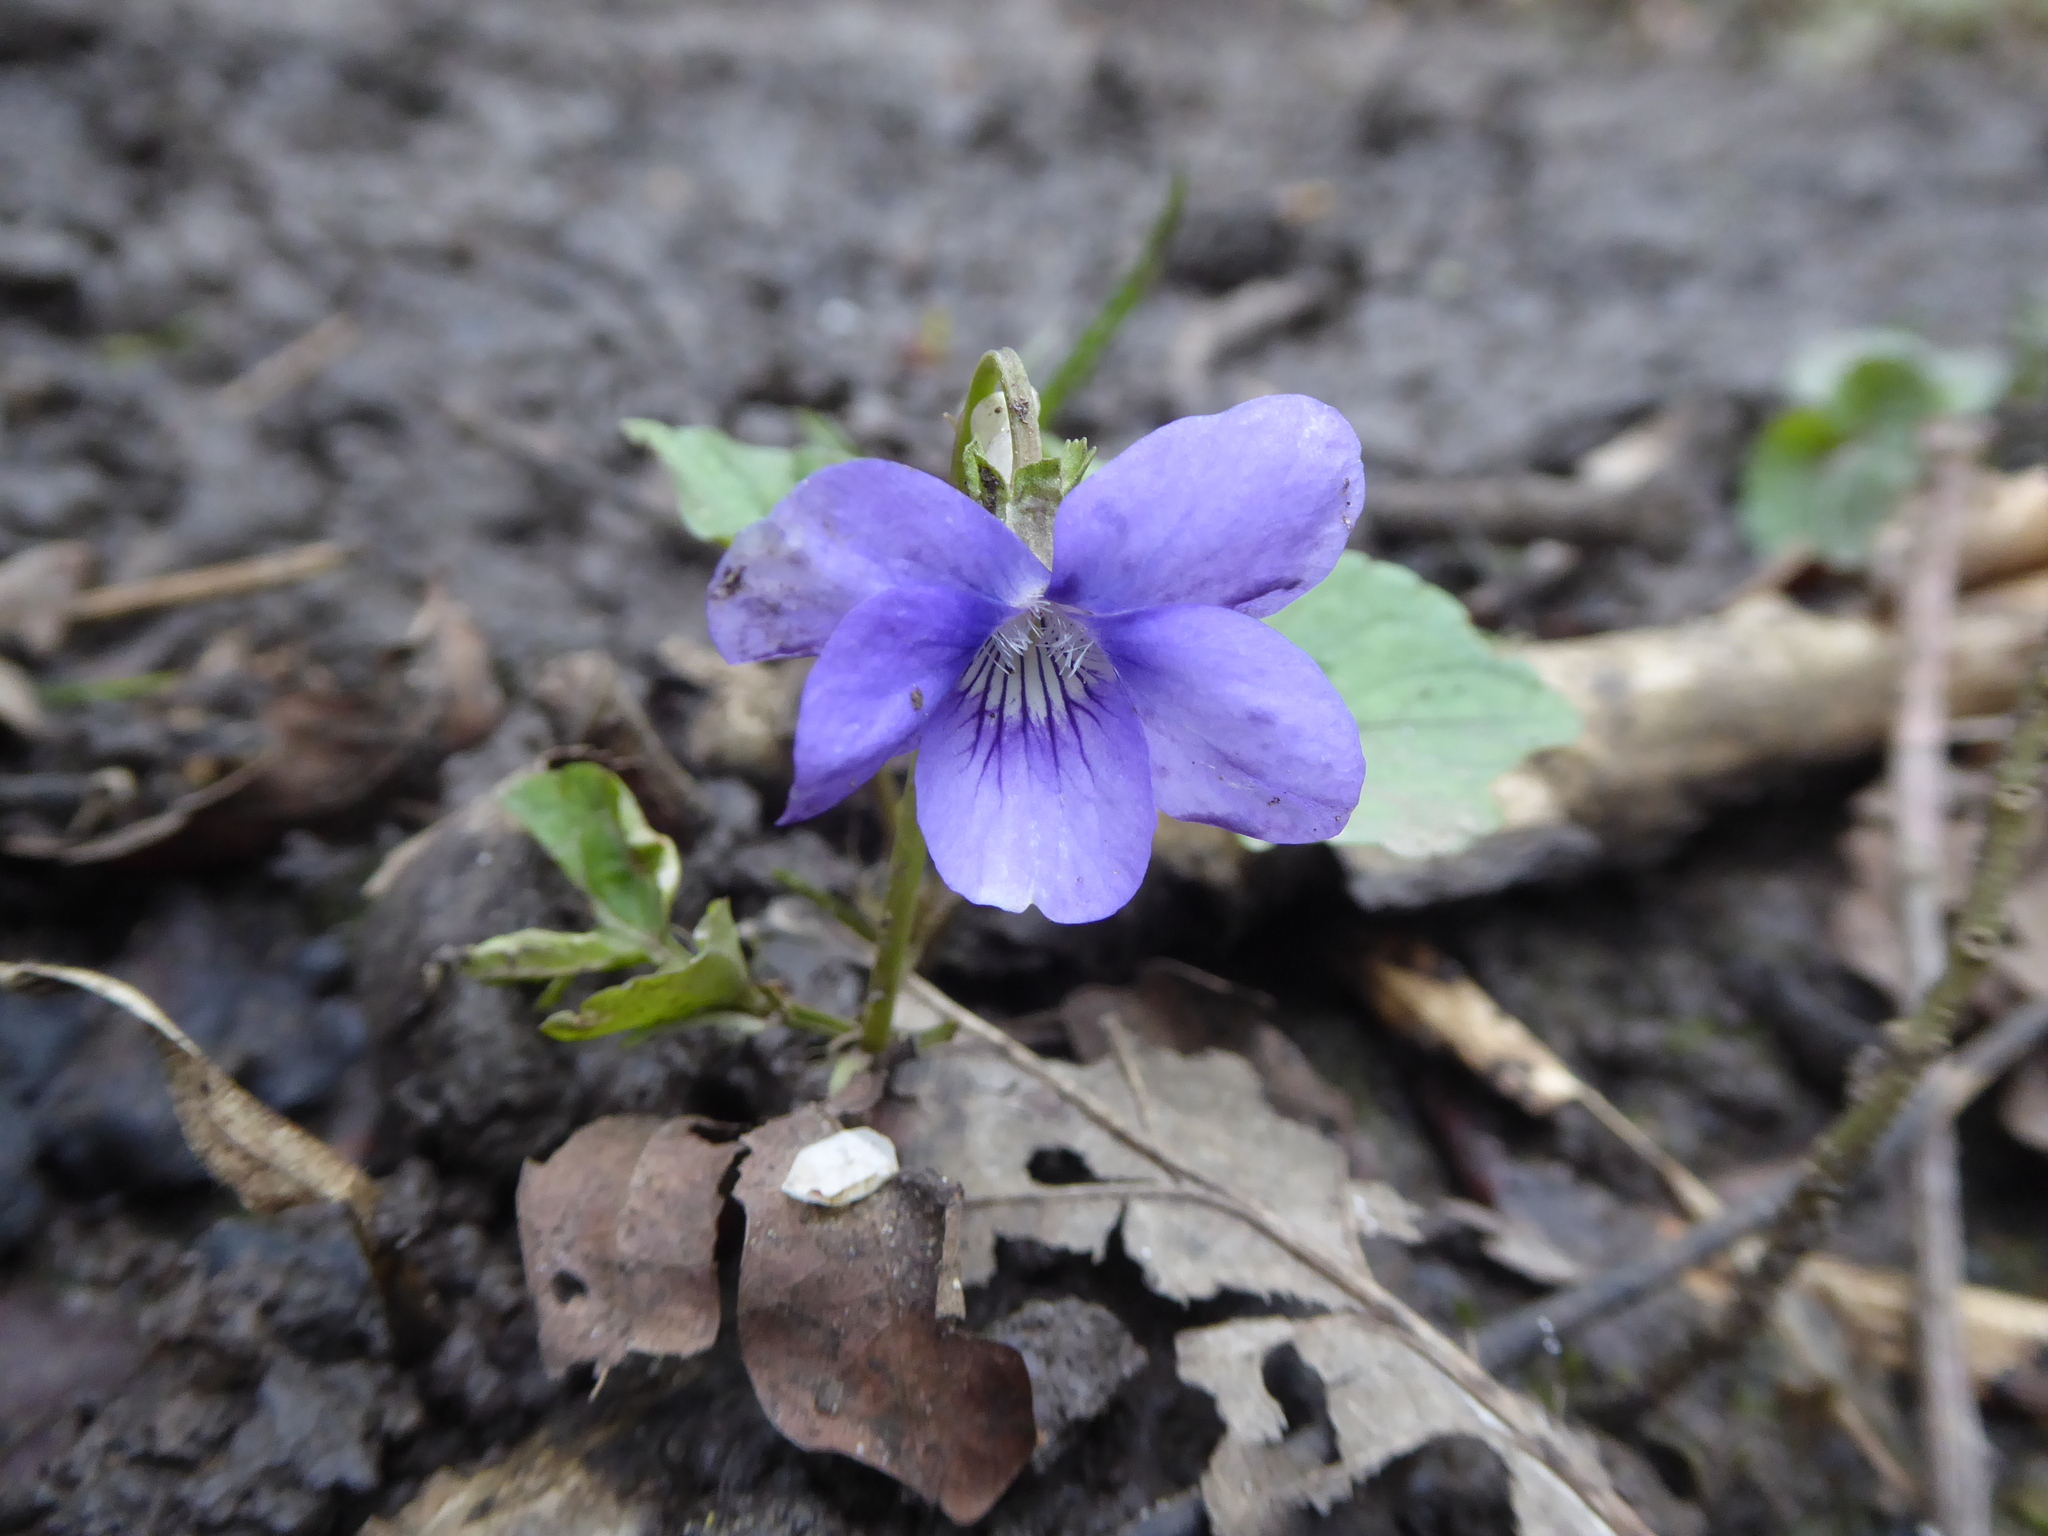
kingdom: Plantae
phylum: Tracheophyta
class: Magnoliopsida
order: Malpighiales
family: Violaceae
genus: Viola
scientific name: Viola riviniana
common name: Common dog-violet
